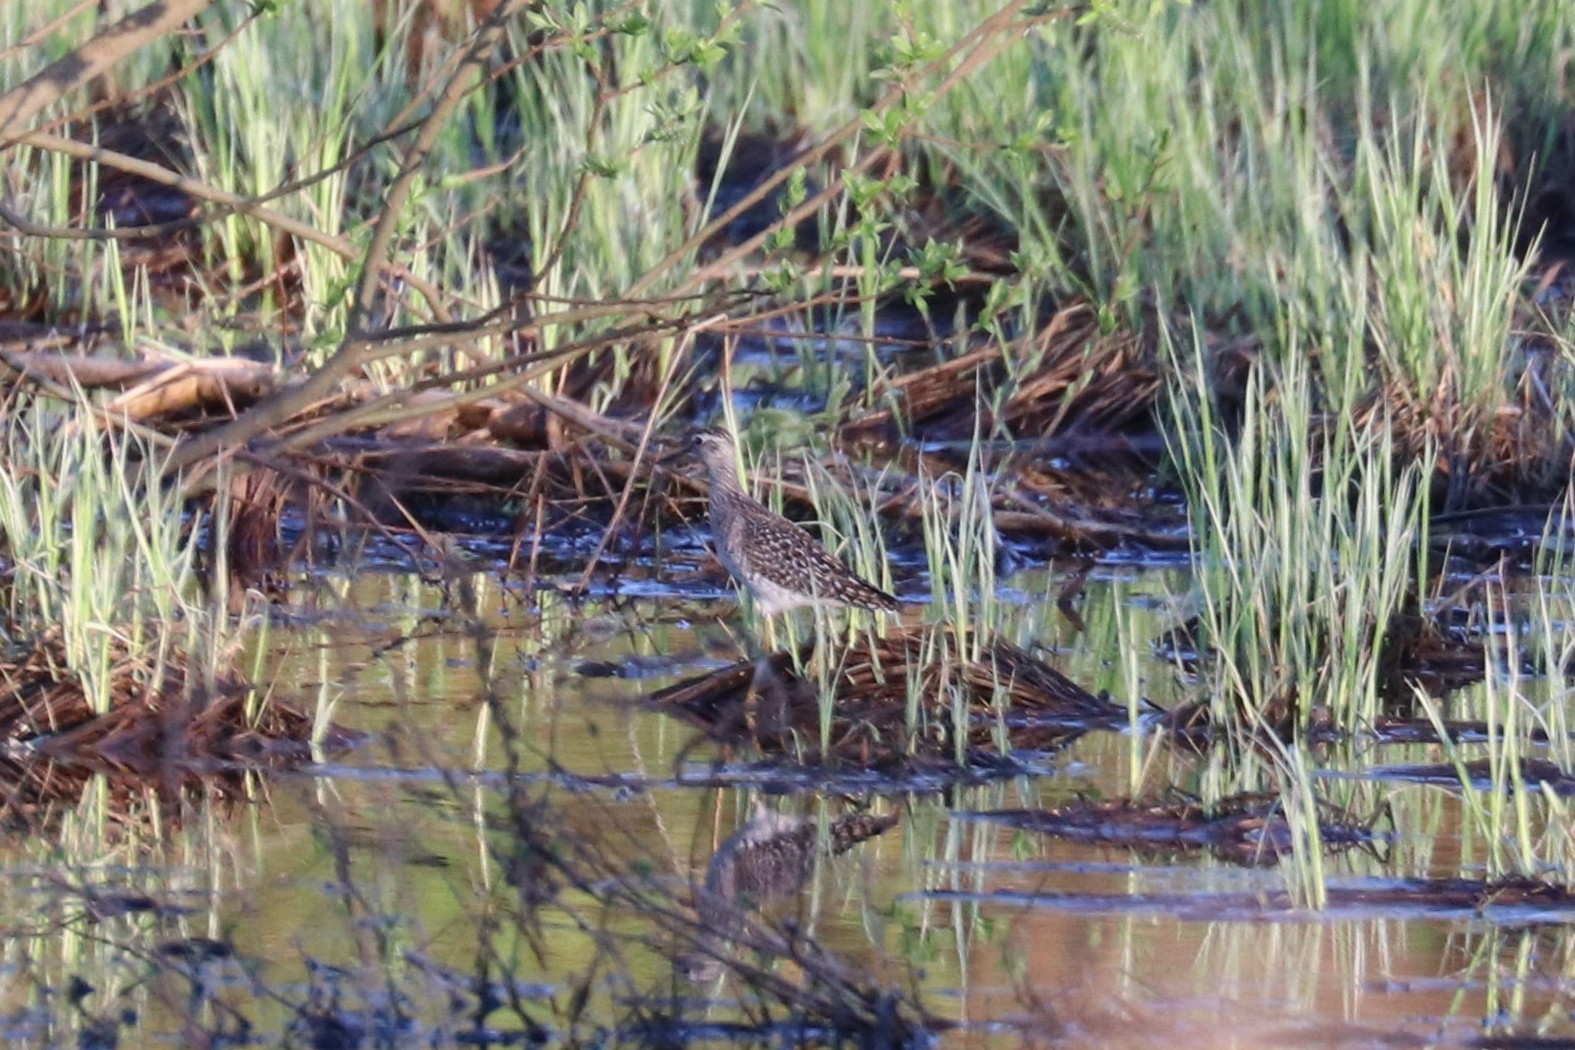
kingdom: Animalia
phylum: Chordata
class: Aves
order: Charadriiformes
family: Scolopacidae
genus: Tringa
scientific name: Tringa glareola
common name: Wood sandpiper
